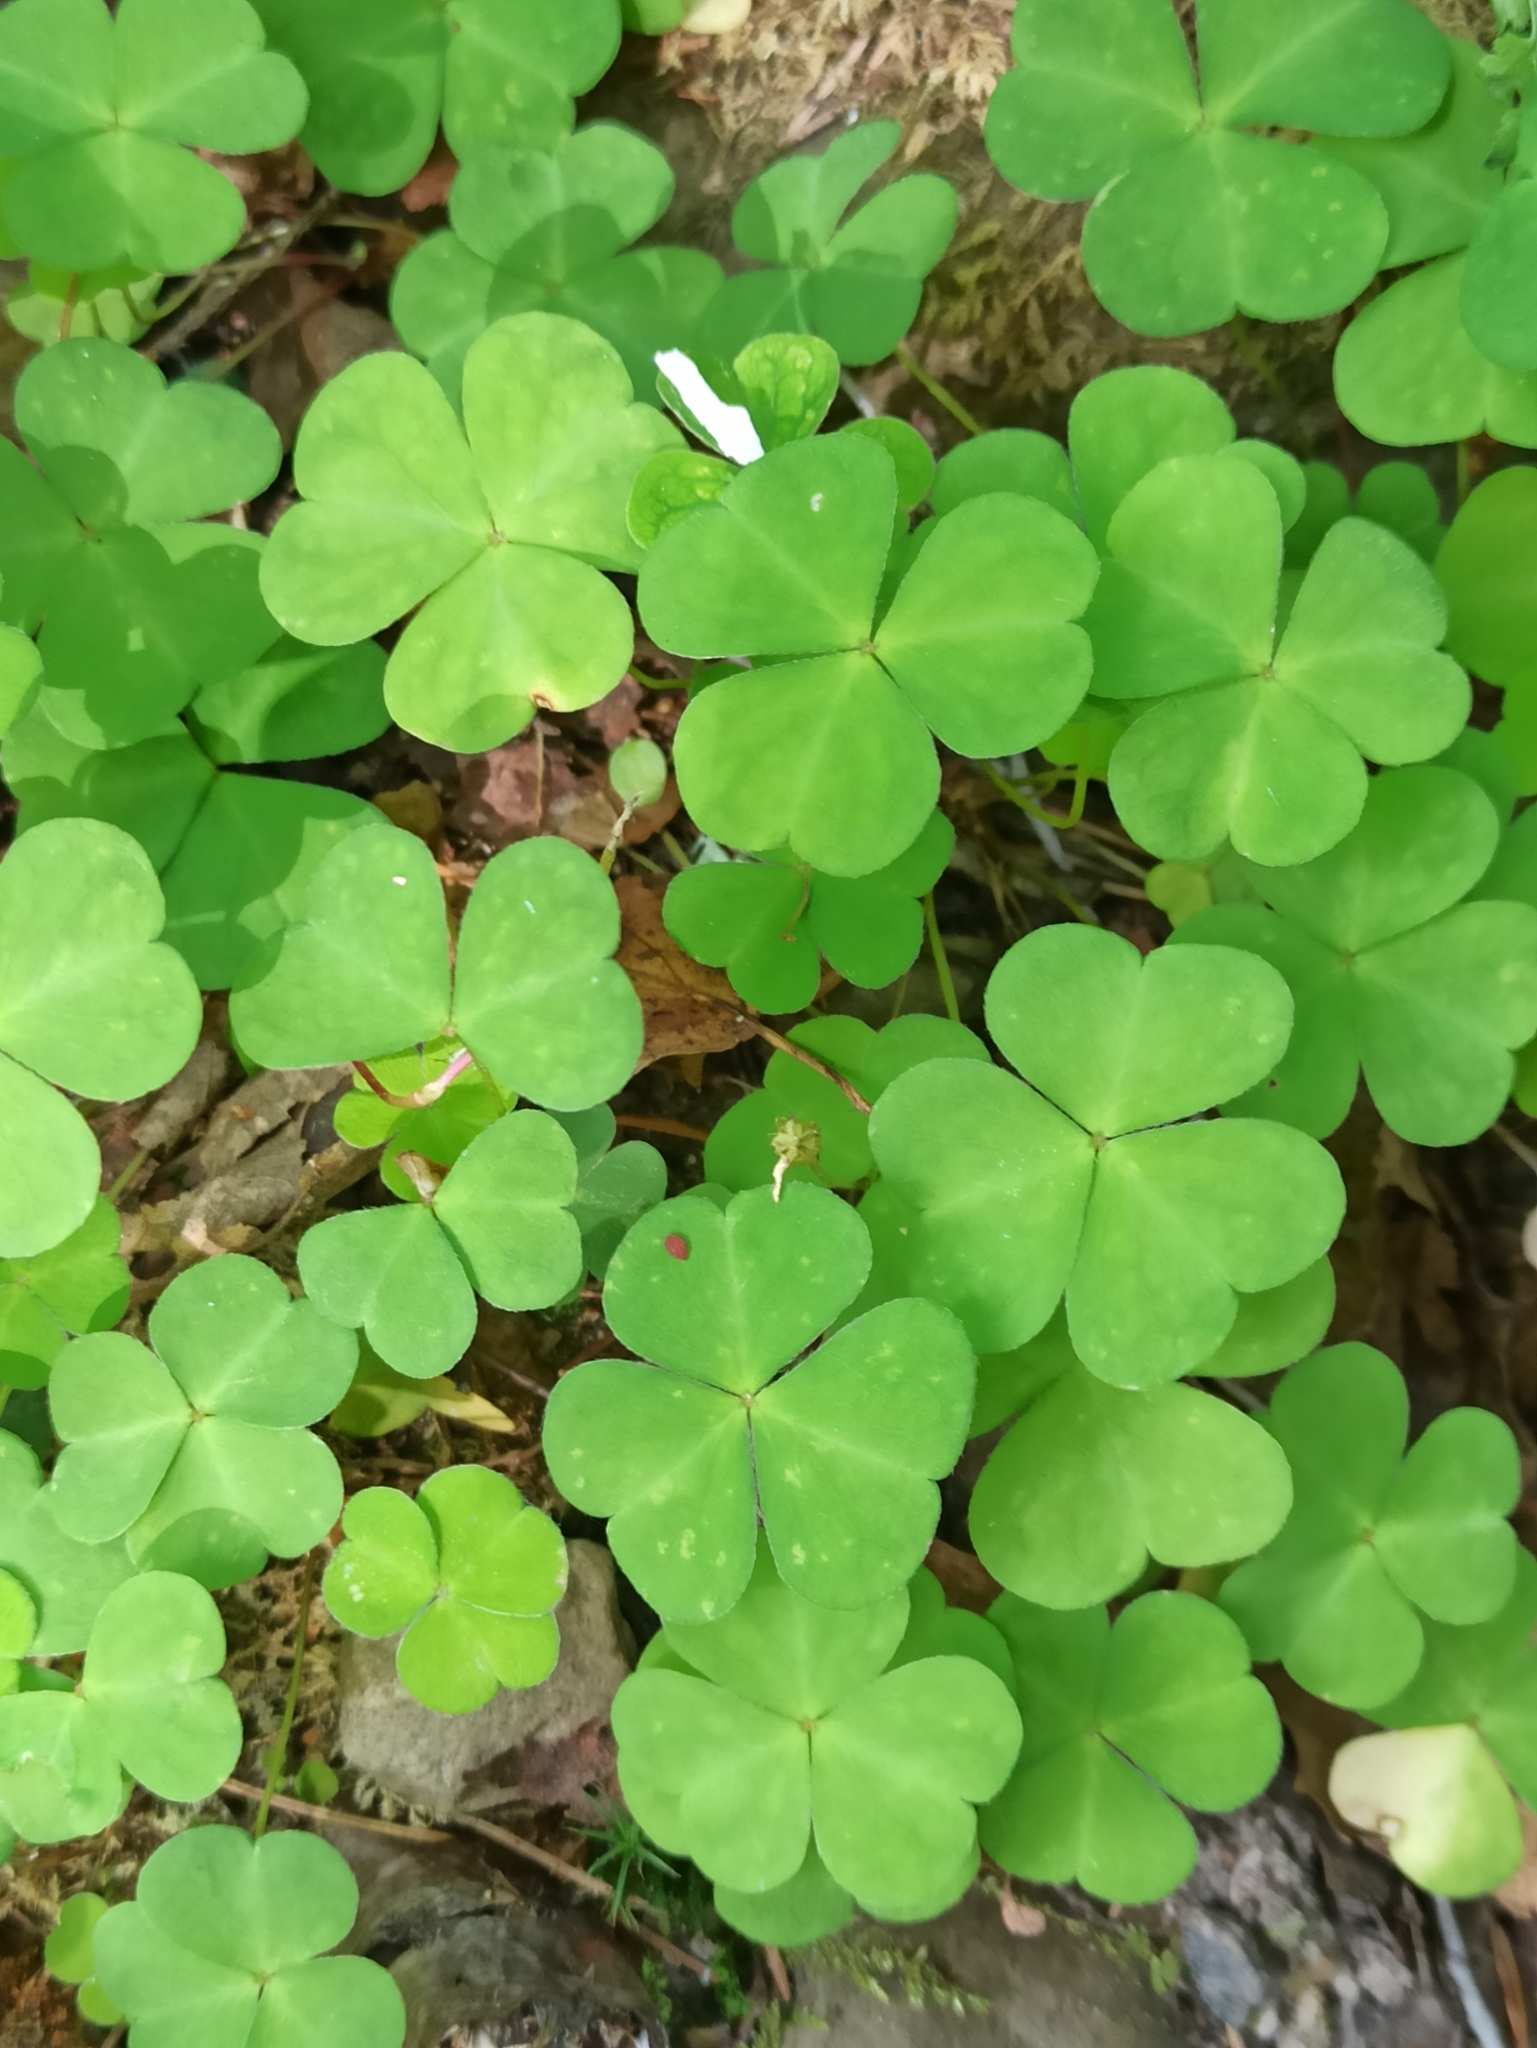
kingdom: Plantae
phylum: Tracheophyta
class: Magnoliopsida
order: Oxalidales
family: Oxalidaceae
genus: Oxalis
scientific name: Oxalis acetosella
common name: Wood-sorrel
